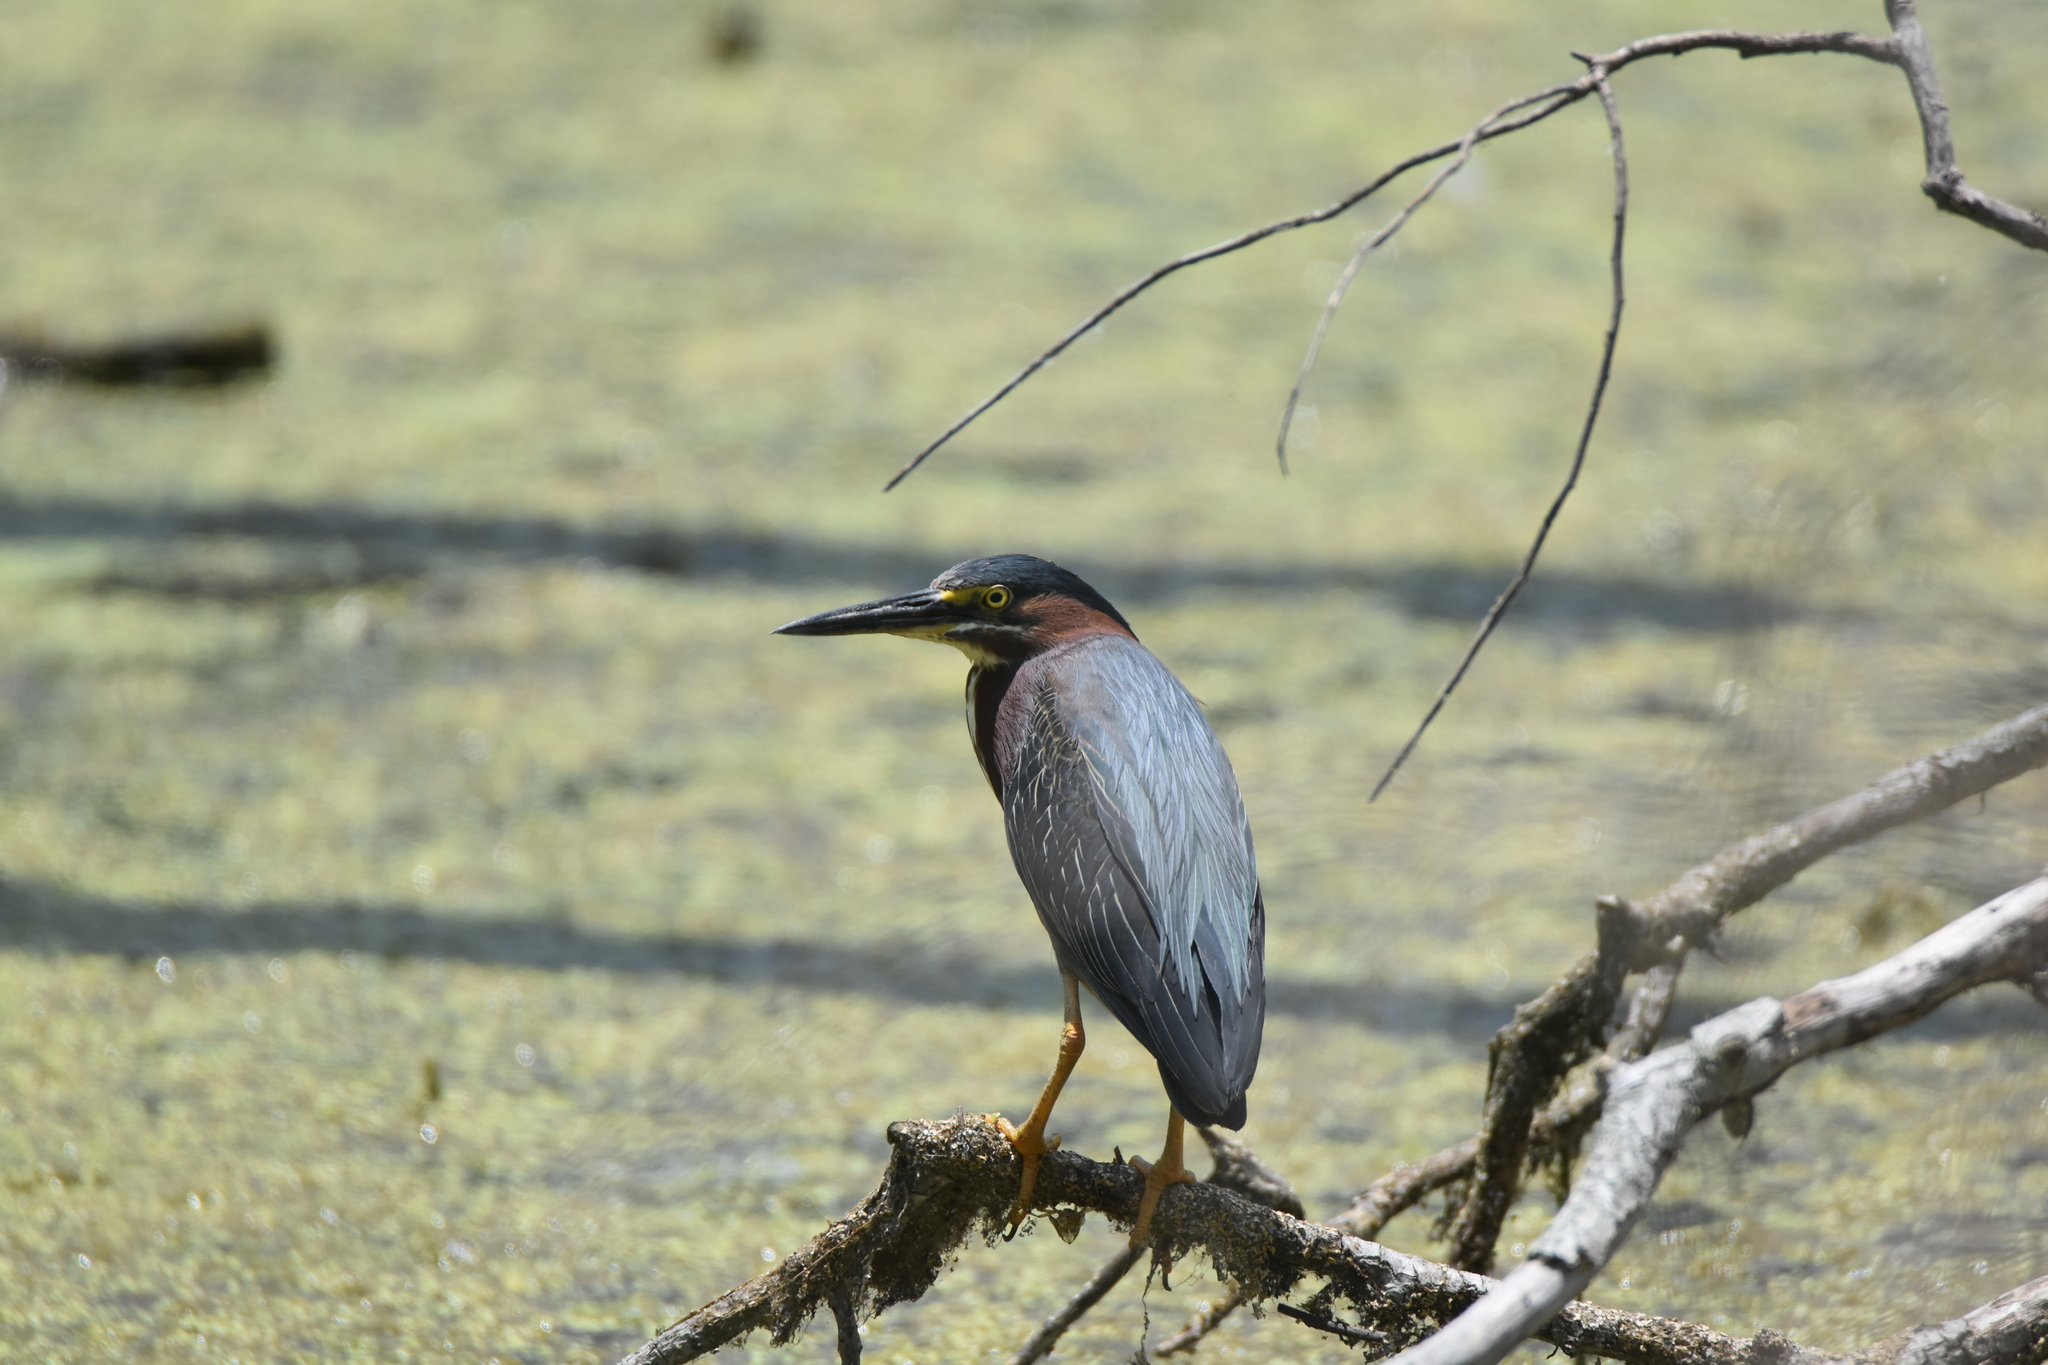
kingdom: Animalia
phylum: Chordata
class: Aves
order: Pelecaniformes
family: Ardeidae
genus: Butorides
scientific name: Butorides virescens
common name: Green heron
